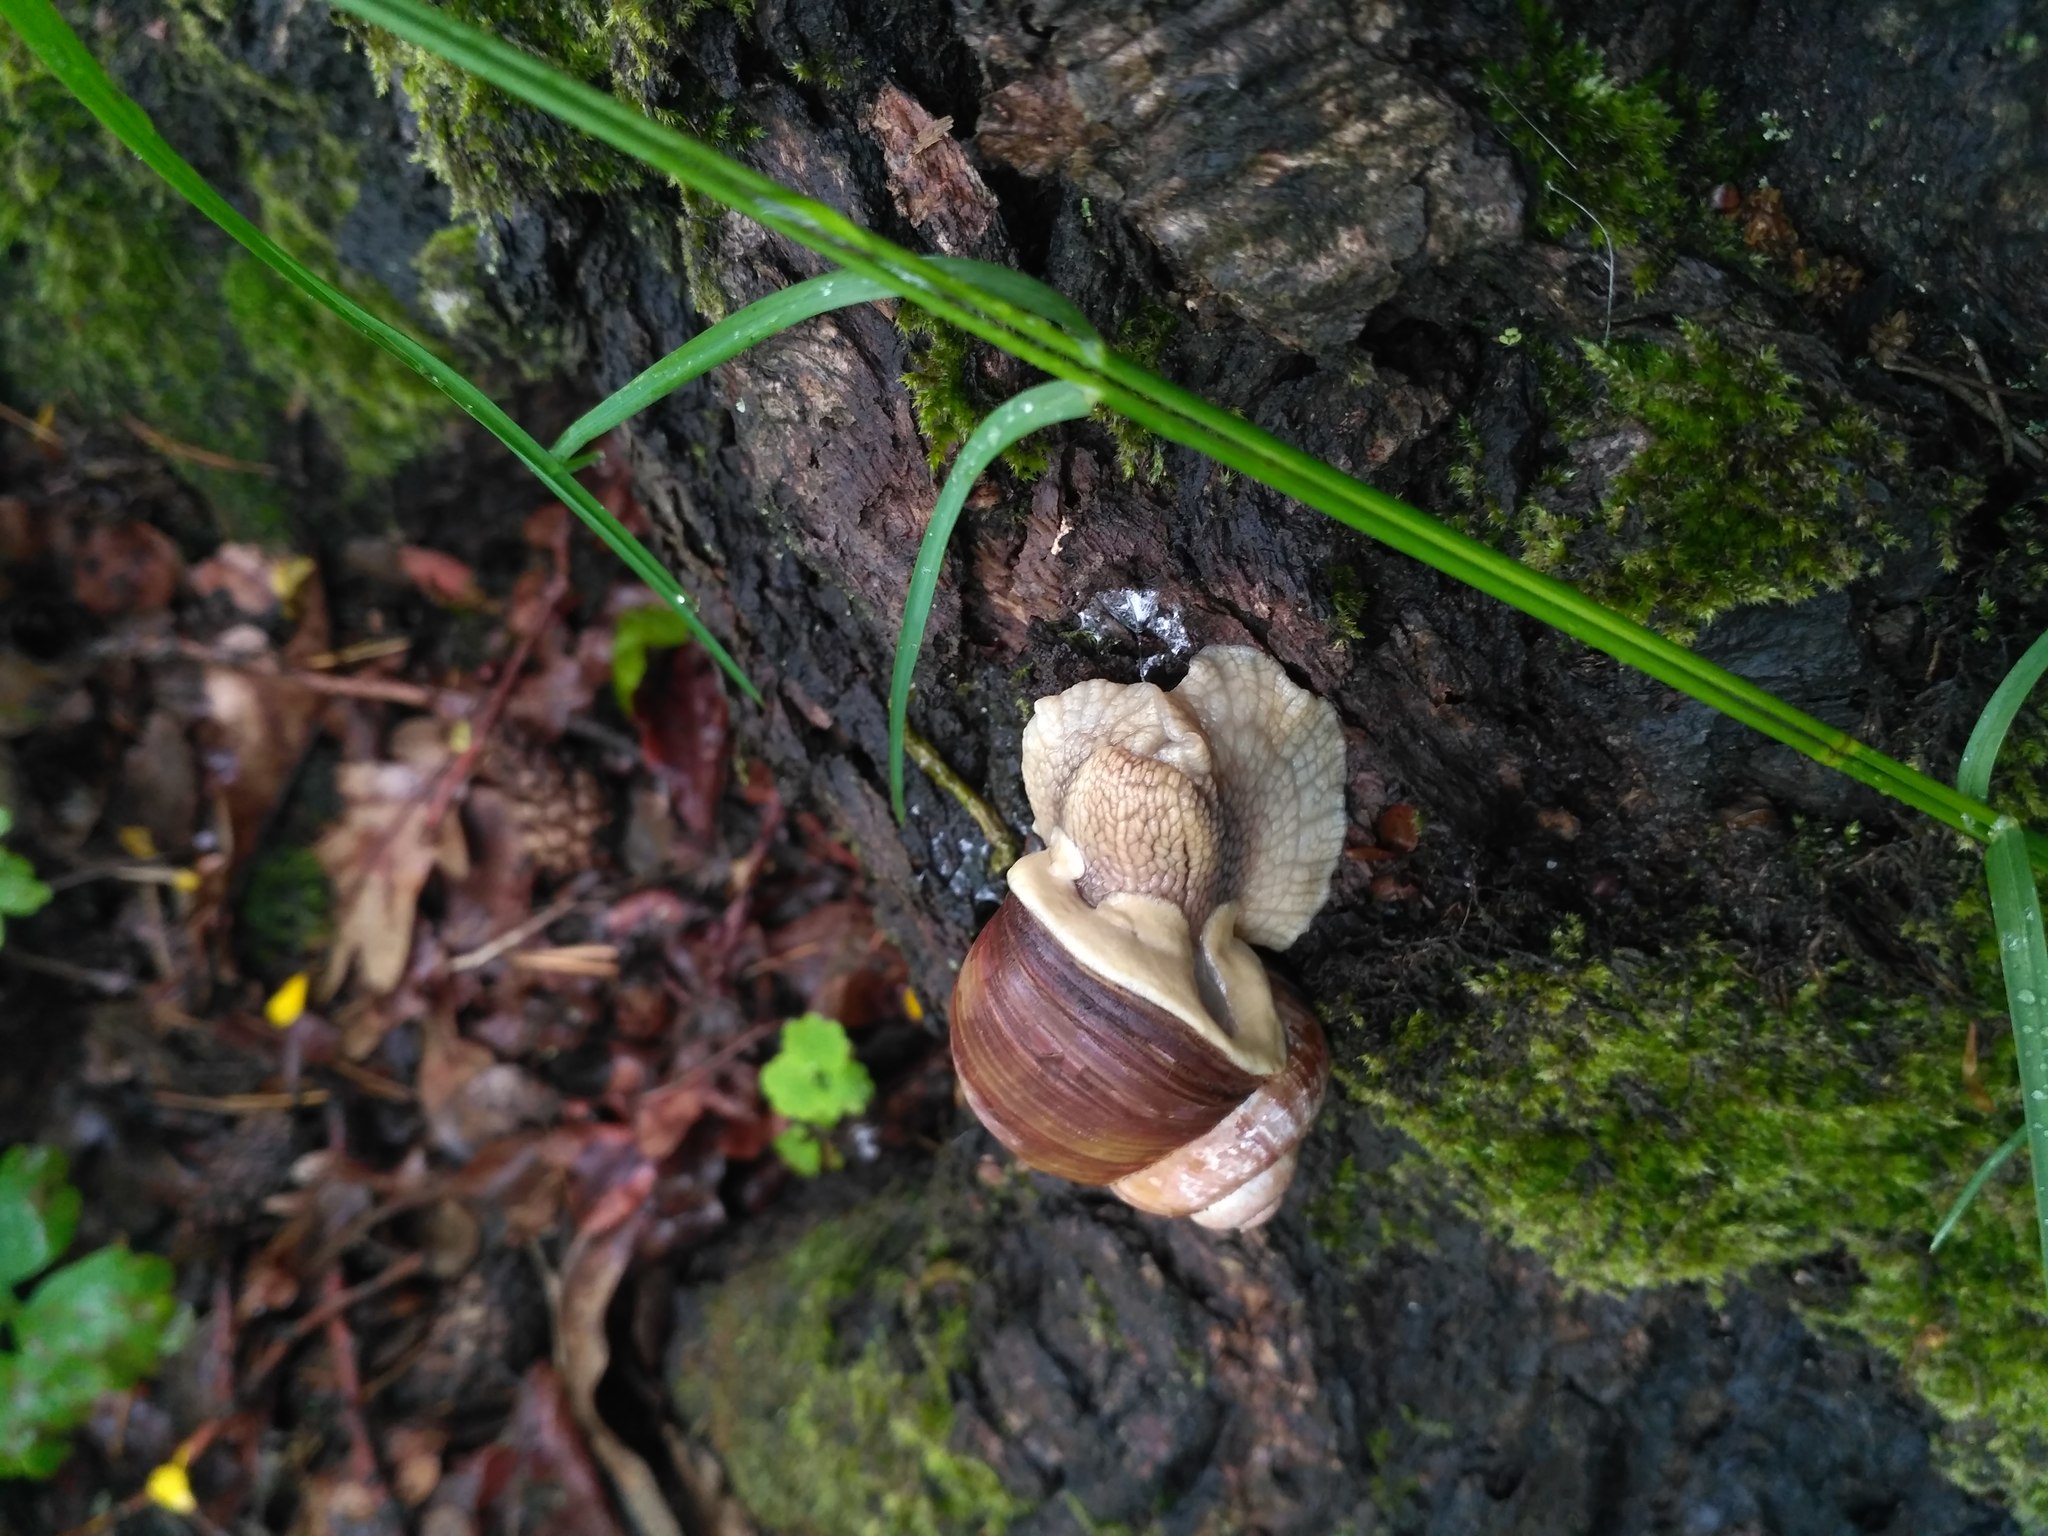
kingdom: Animalia
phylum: Mollusca
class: Gastropoda
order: Stylommatophora
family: Helicidae
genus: Helix
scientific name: Helix pomatia
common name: Roman snail
